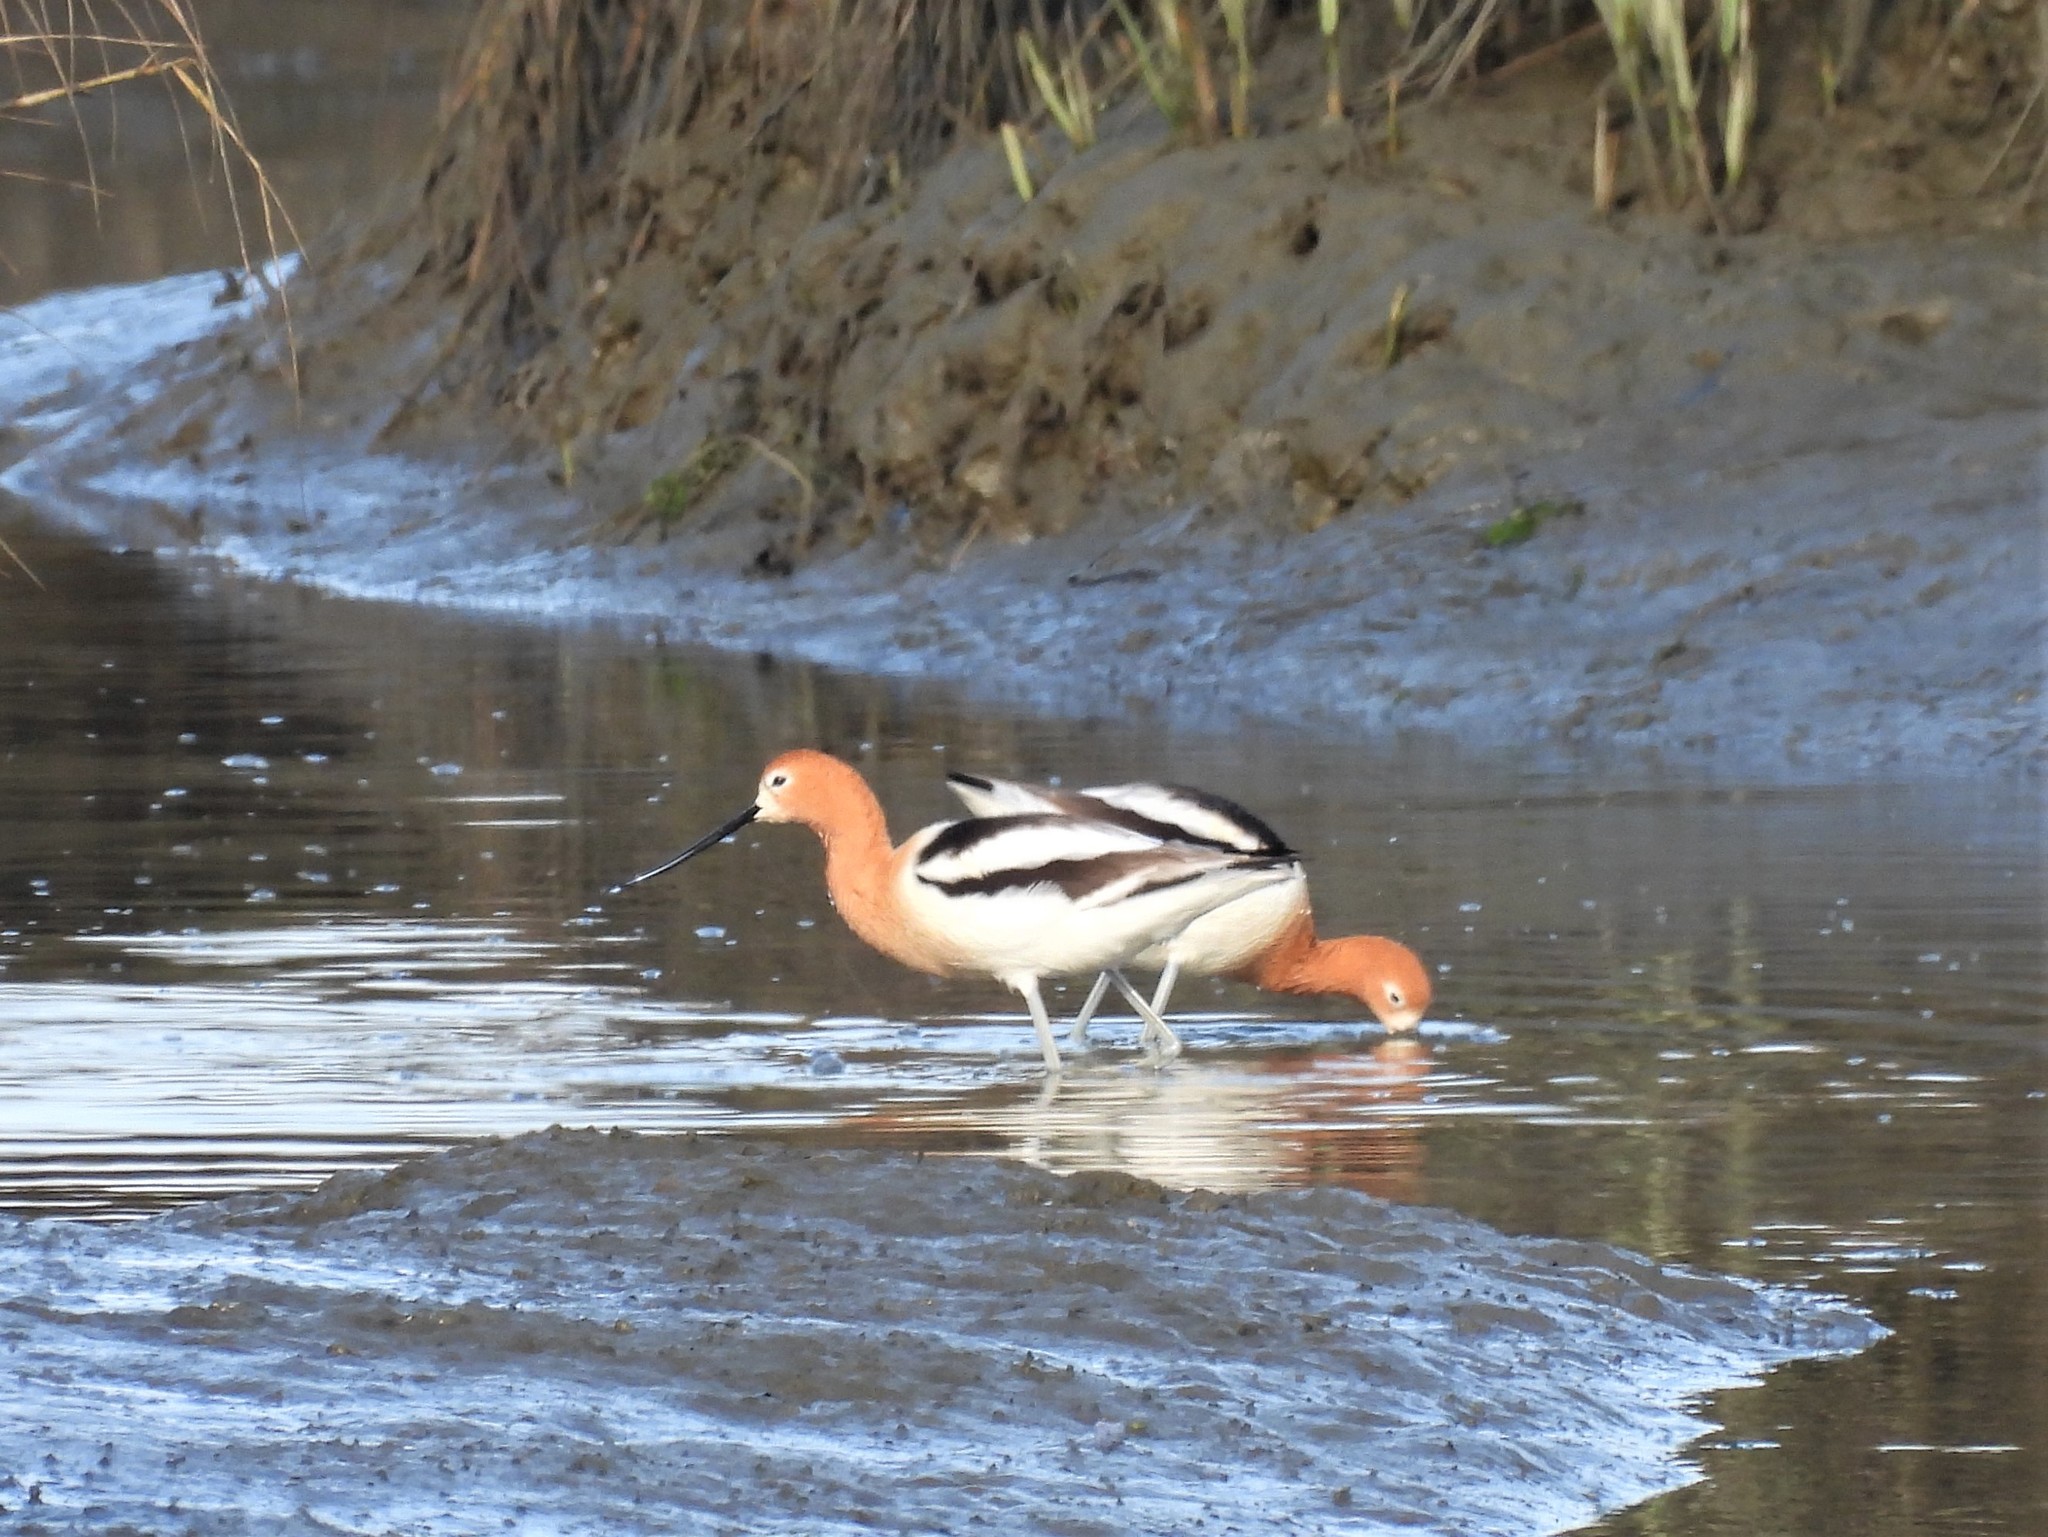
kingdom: Animalia
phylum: Chordata
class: Aves
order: Charadriiformes
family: Recurvirostridae
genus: Recurvirostra
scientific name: Recurvirostra americana
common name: American avocet
